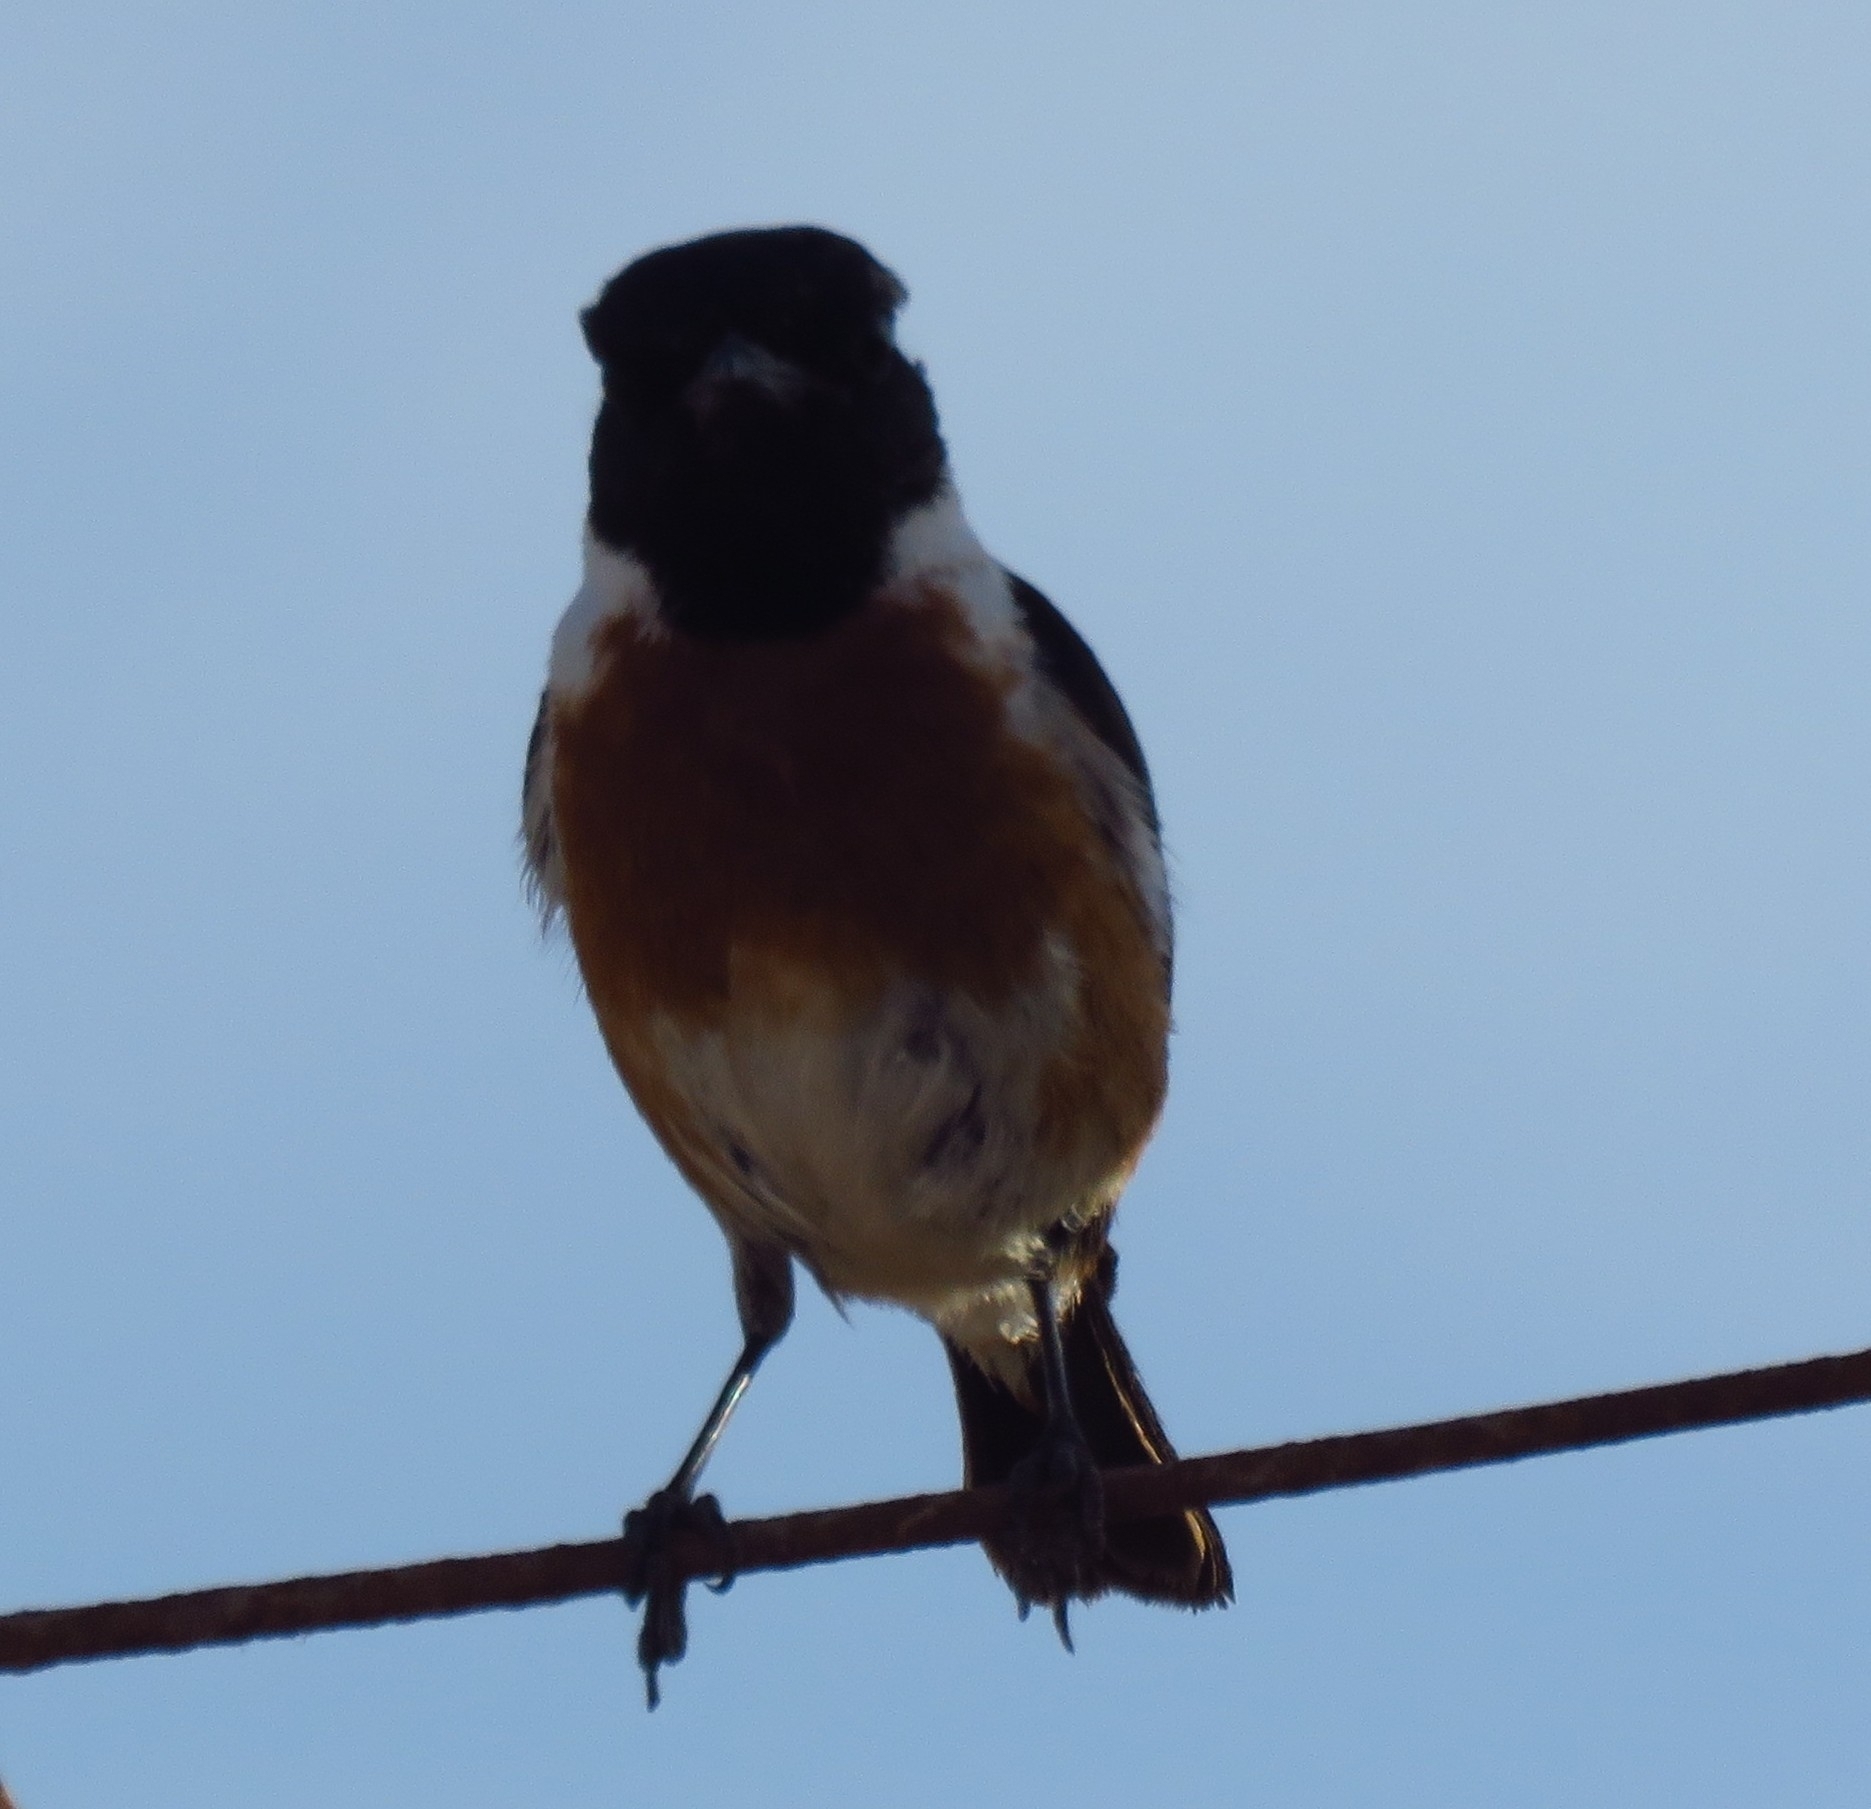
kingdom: Animalia
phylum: Chordata
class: Aves
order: Passeriformes
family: Muscicapidae
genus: Saxicola
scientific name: Saxicola rubicola
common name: European stonechat
